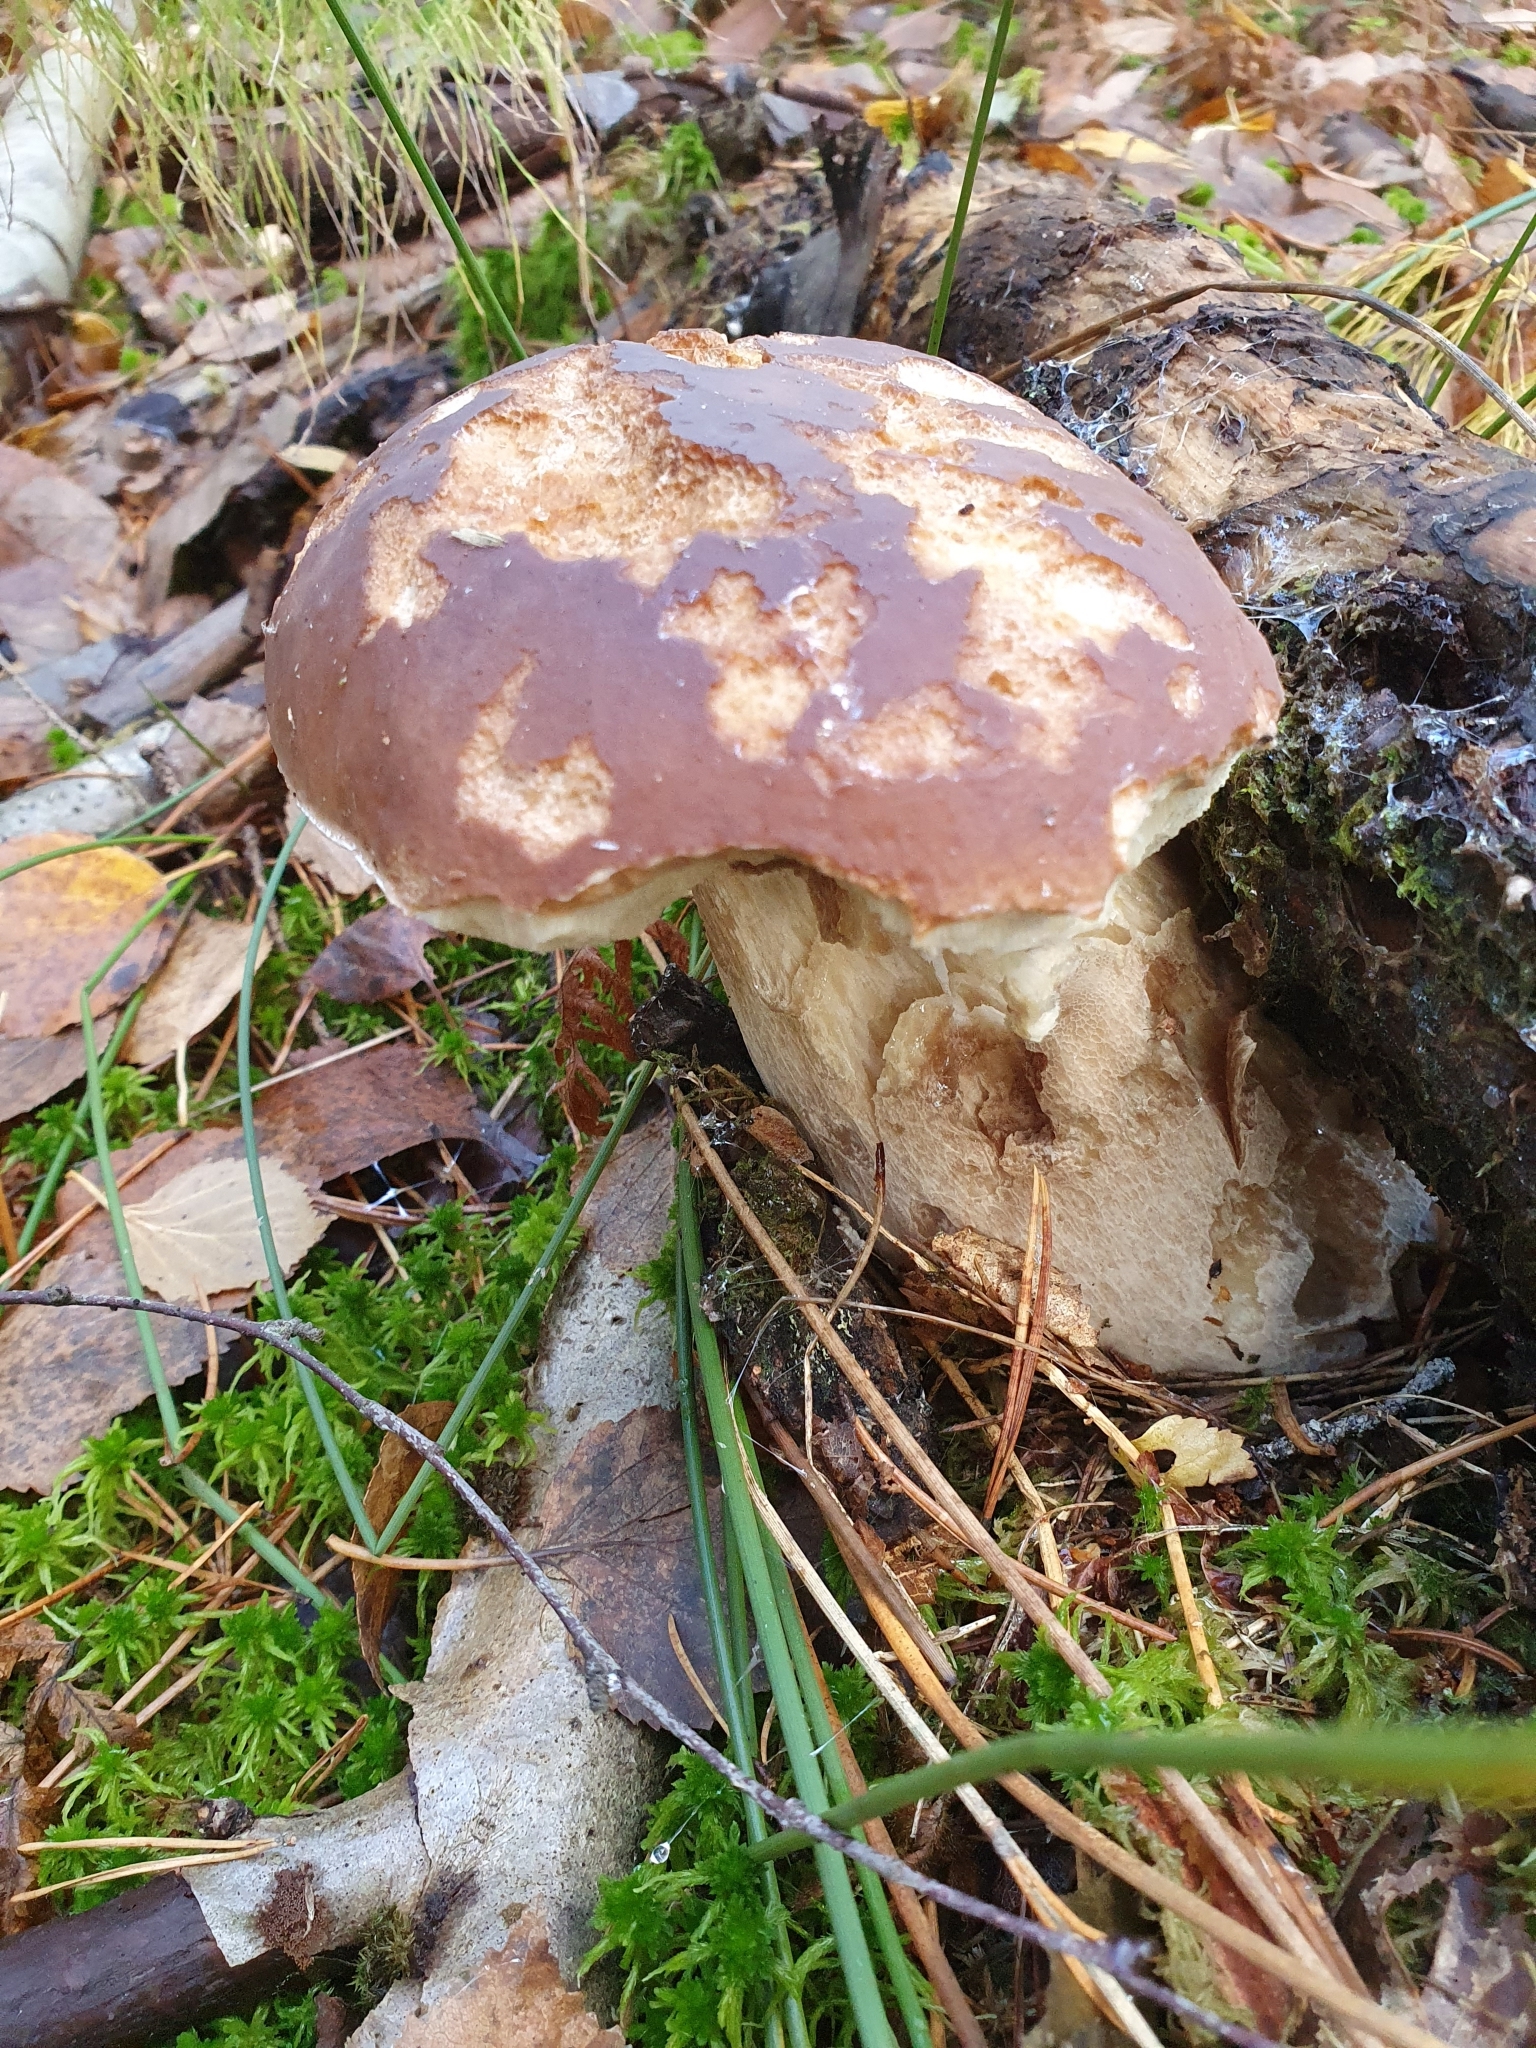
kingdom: Fungi
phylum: Basidiomycota
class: Agaricomycetes
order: Boletales
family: Boletaceae
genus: Boletus
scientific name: Boletus edulis
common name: Cep
